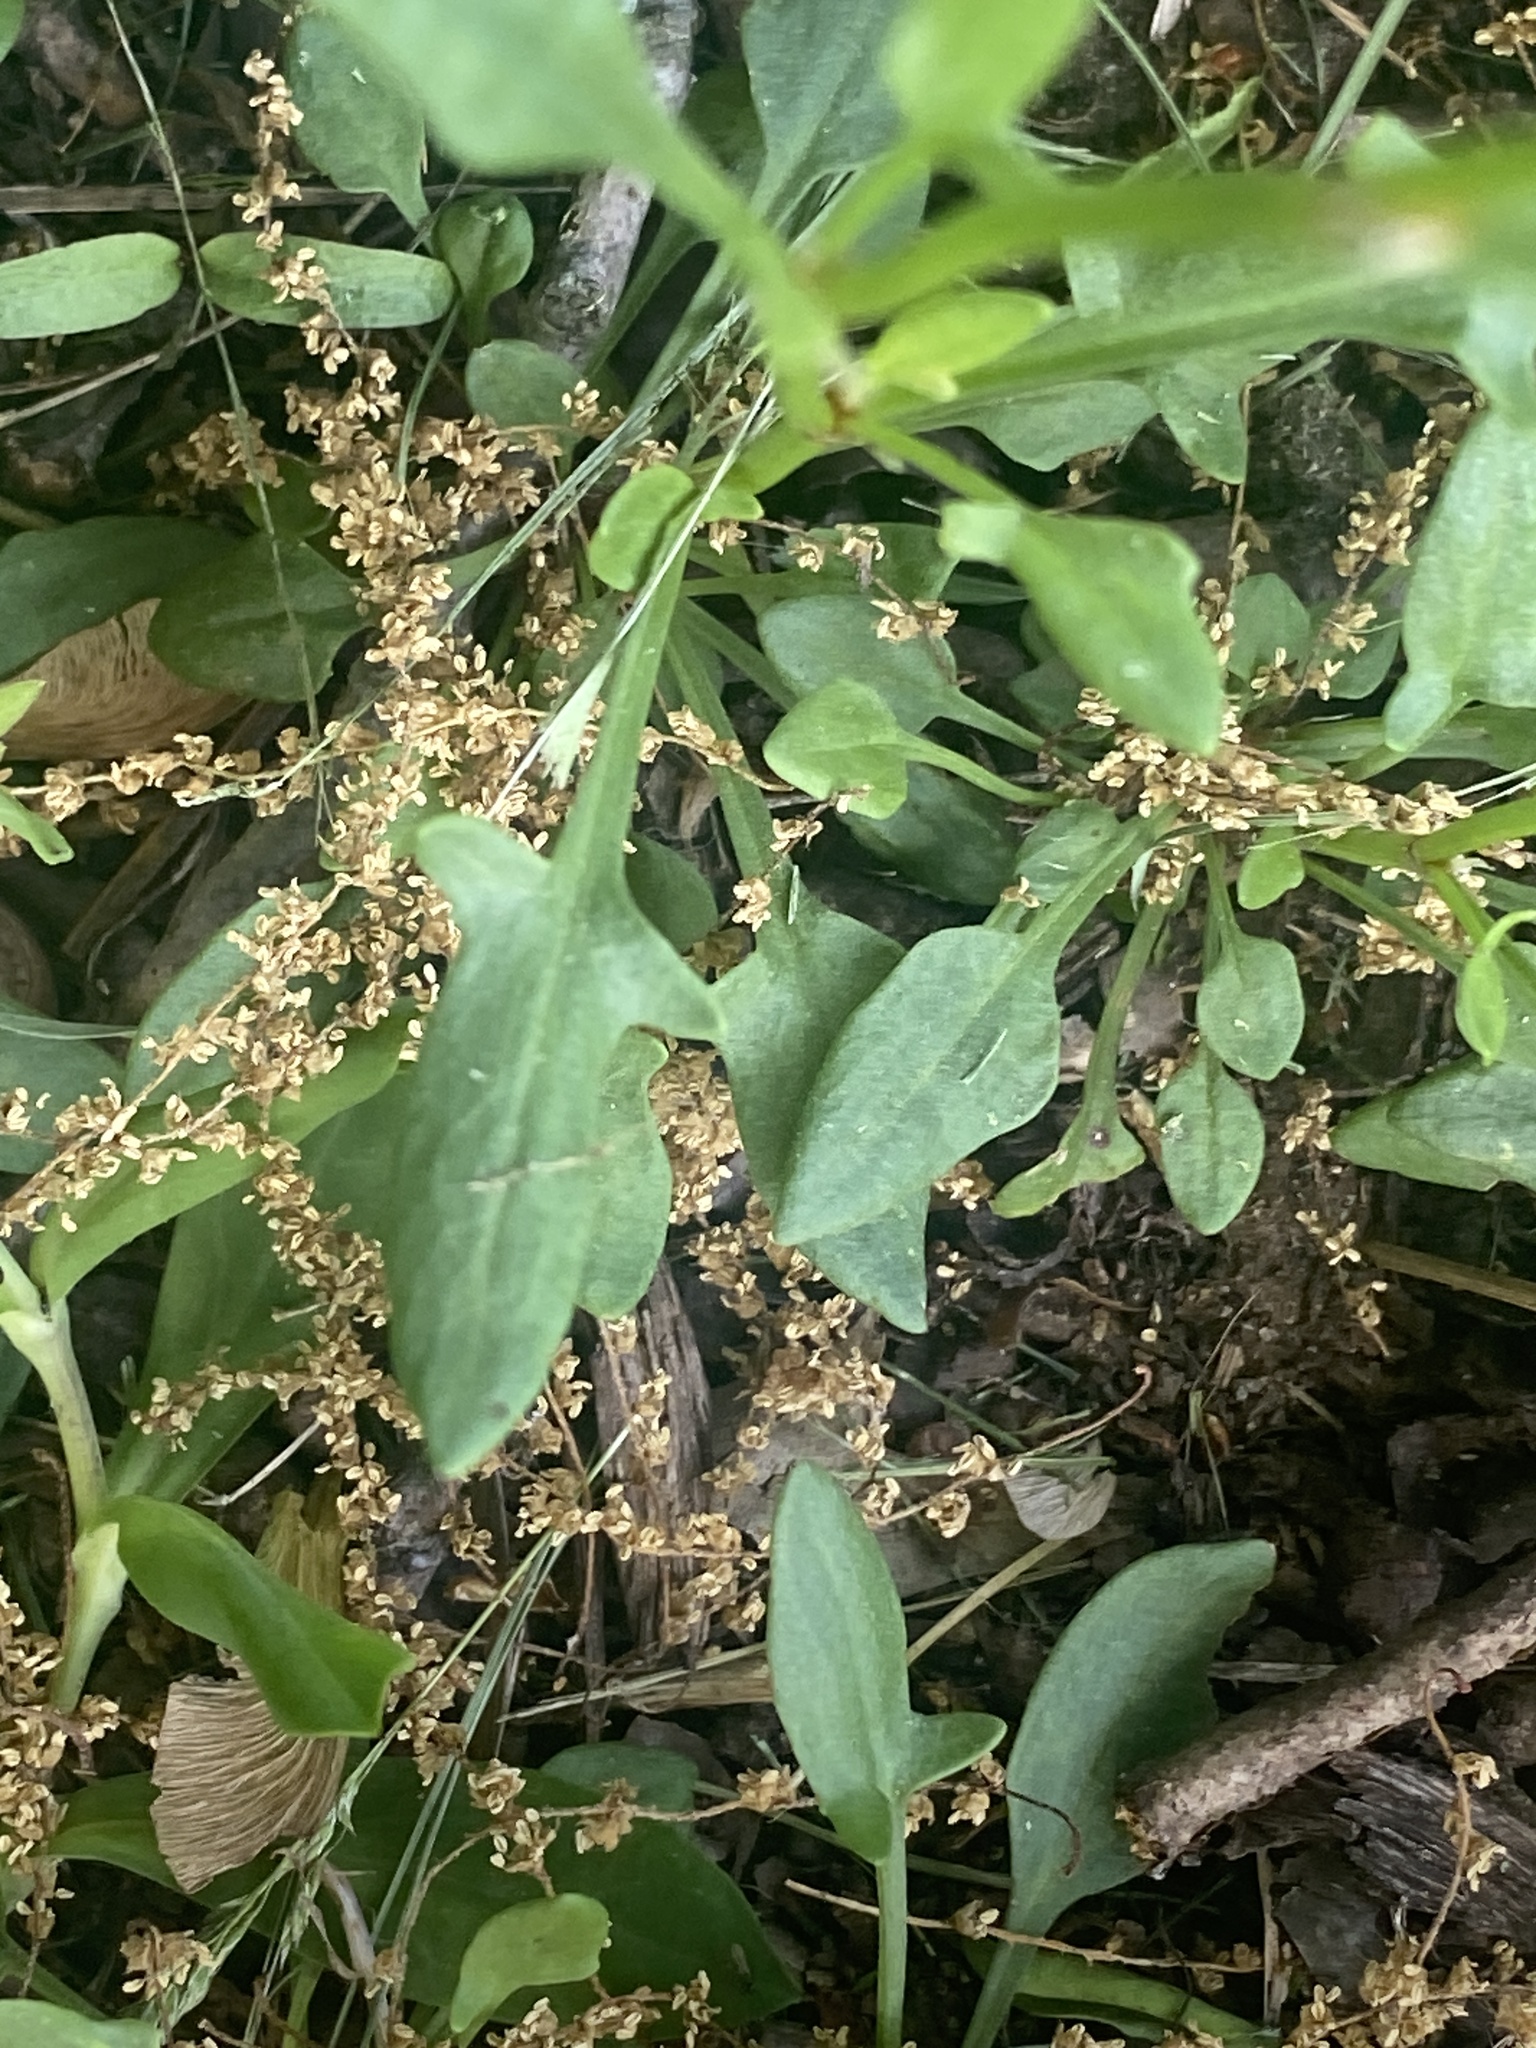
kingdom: Plantae
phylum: Tracheophyta
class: Magnoliopsida
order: Caryophyllales
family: Polygonaceae
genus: Rumex
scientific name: Rumex acetosella
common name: Common sheep sorrel
